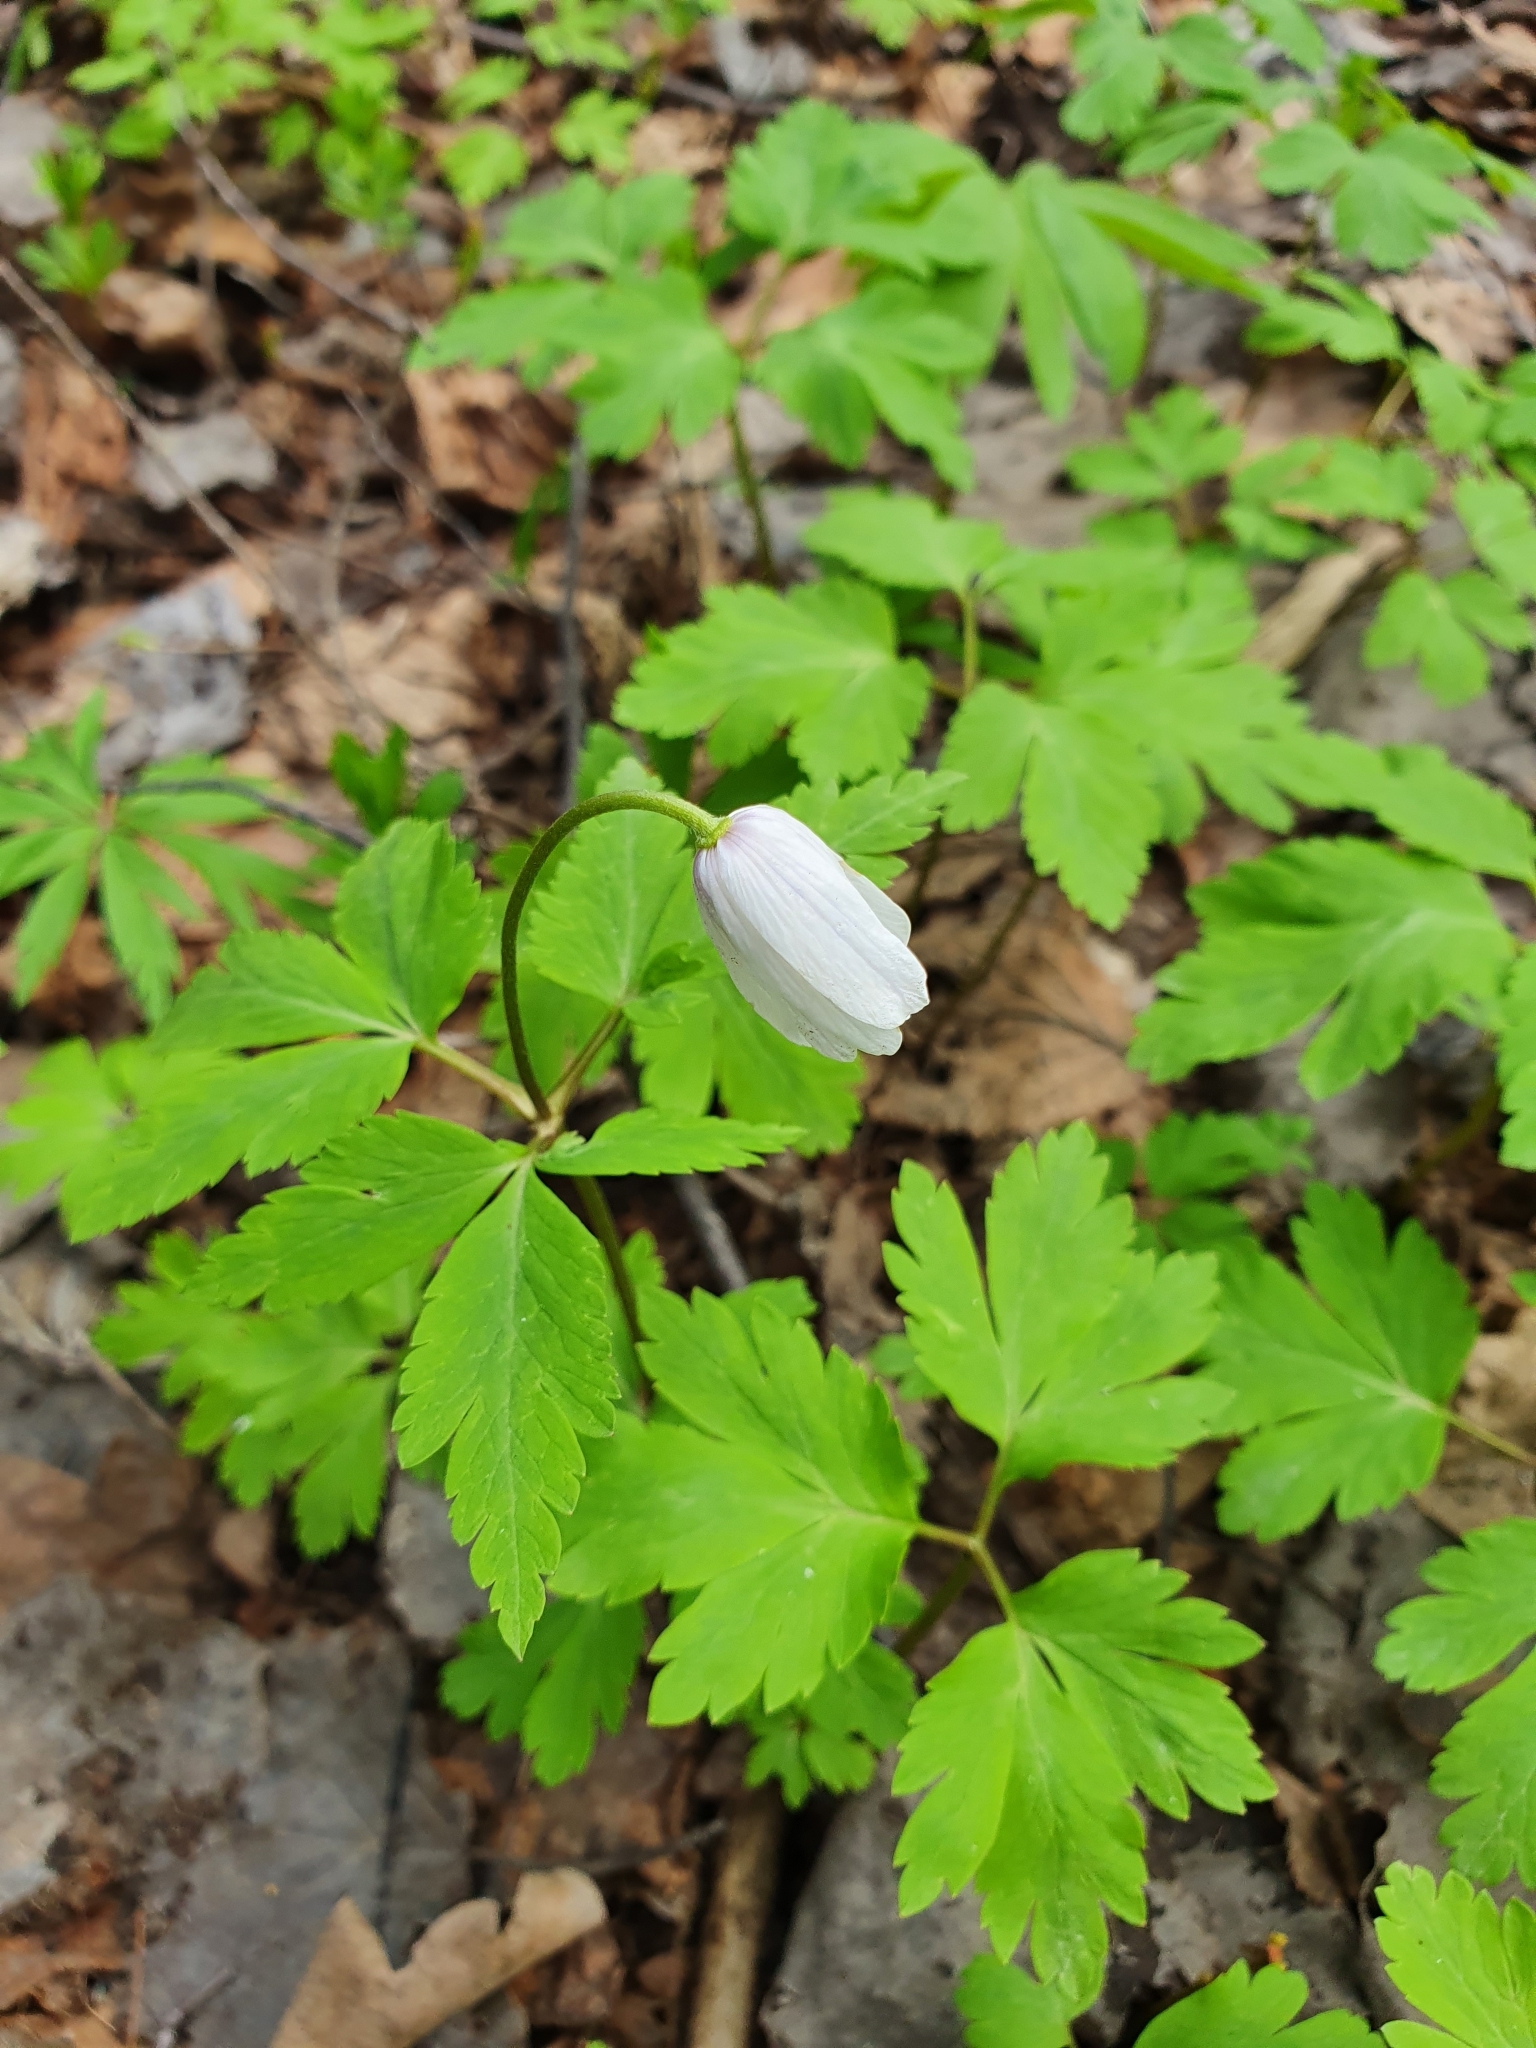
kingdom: Plantae
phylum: Tracheophyta
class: Magnoliopsida
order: Ranunculales
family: Ranunculaceae
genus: Anemone
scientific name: Anemone altaica
